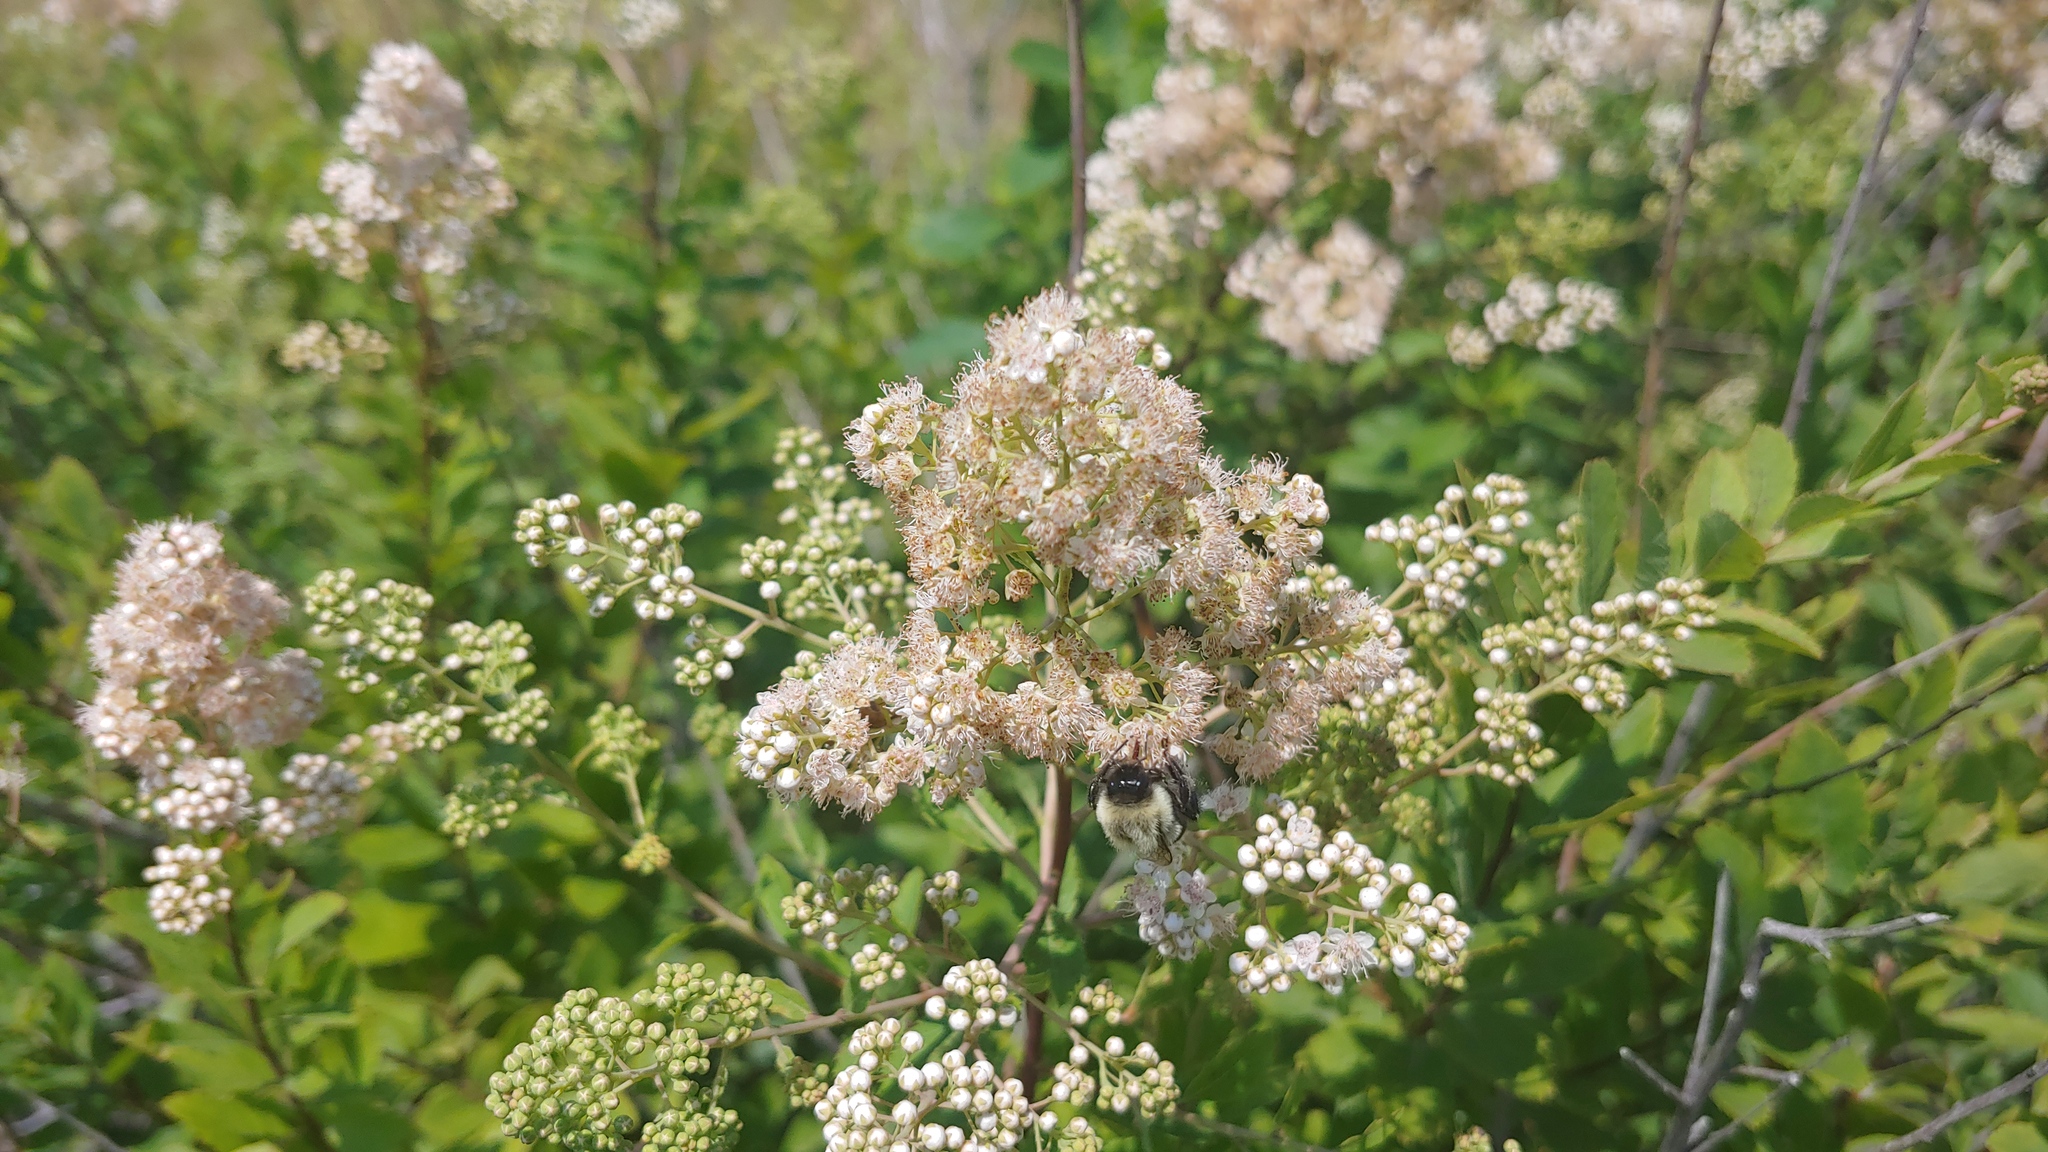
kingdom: Plantae
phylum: Tracheophyta
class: Magnoliopsida
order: Rosales
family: Rosaceae
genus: Spiraea
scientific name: Spiraea alba
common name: Pale bridewort
